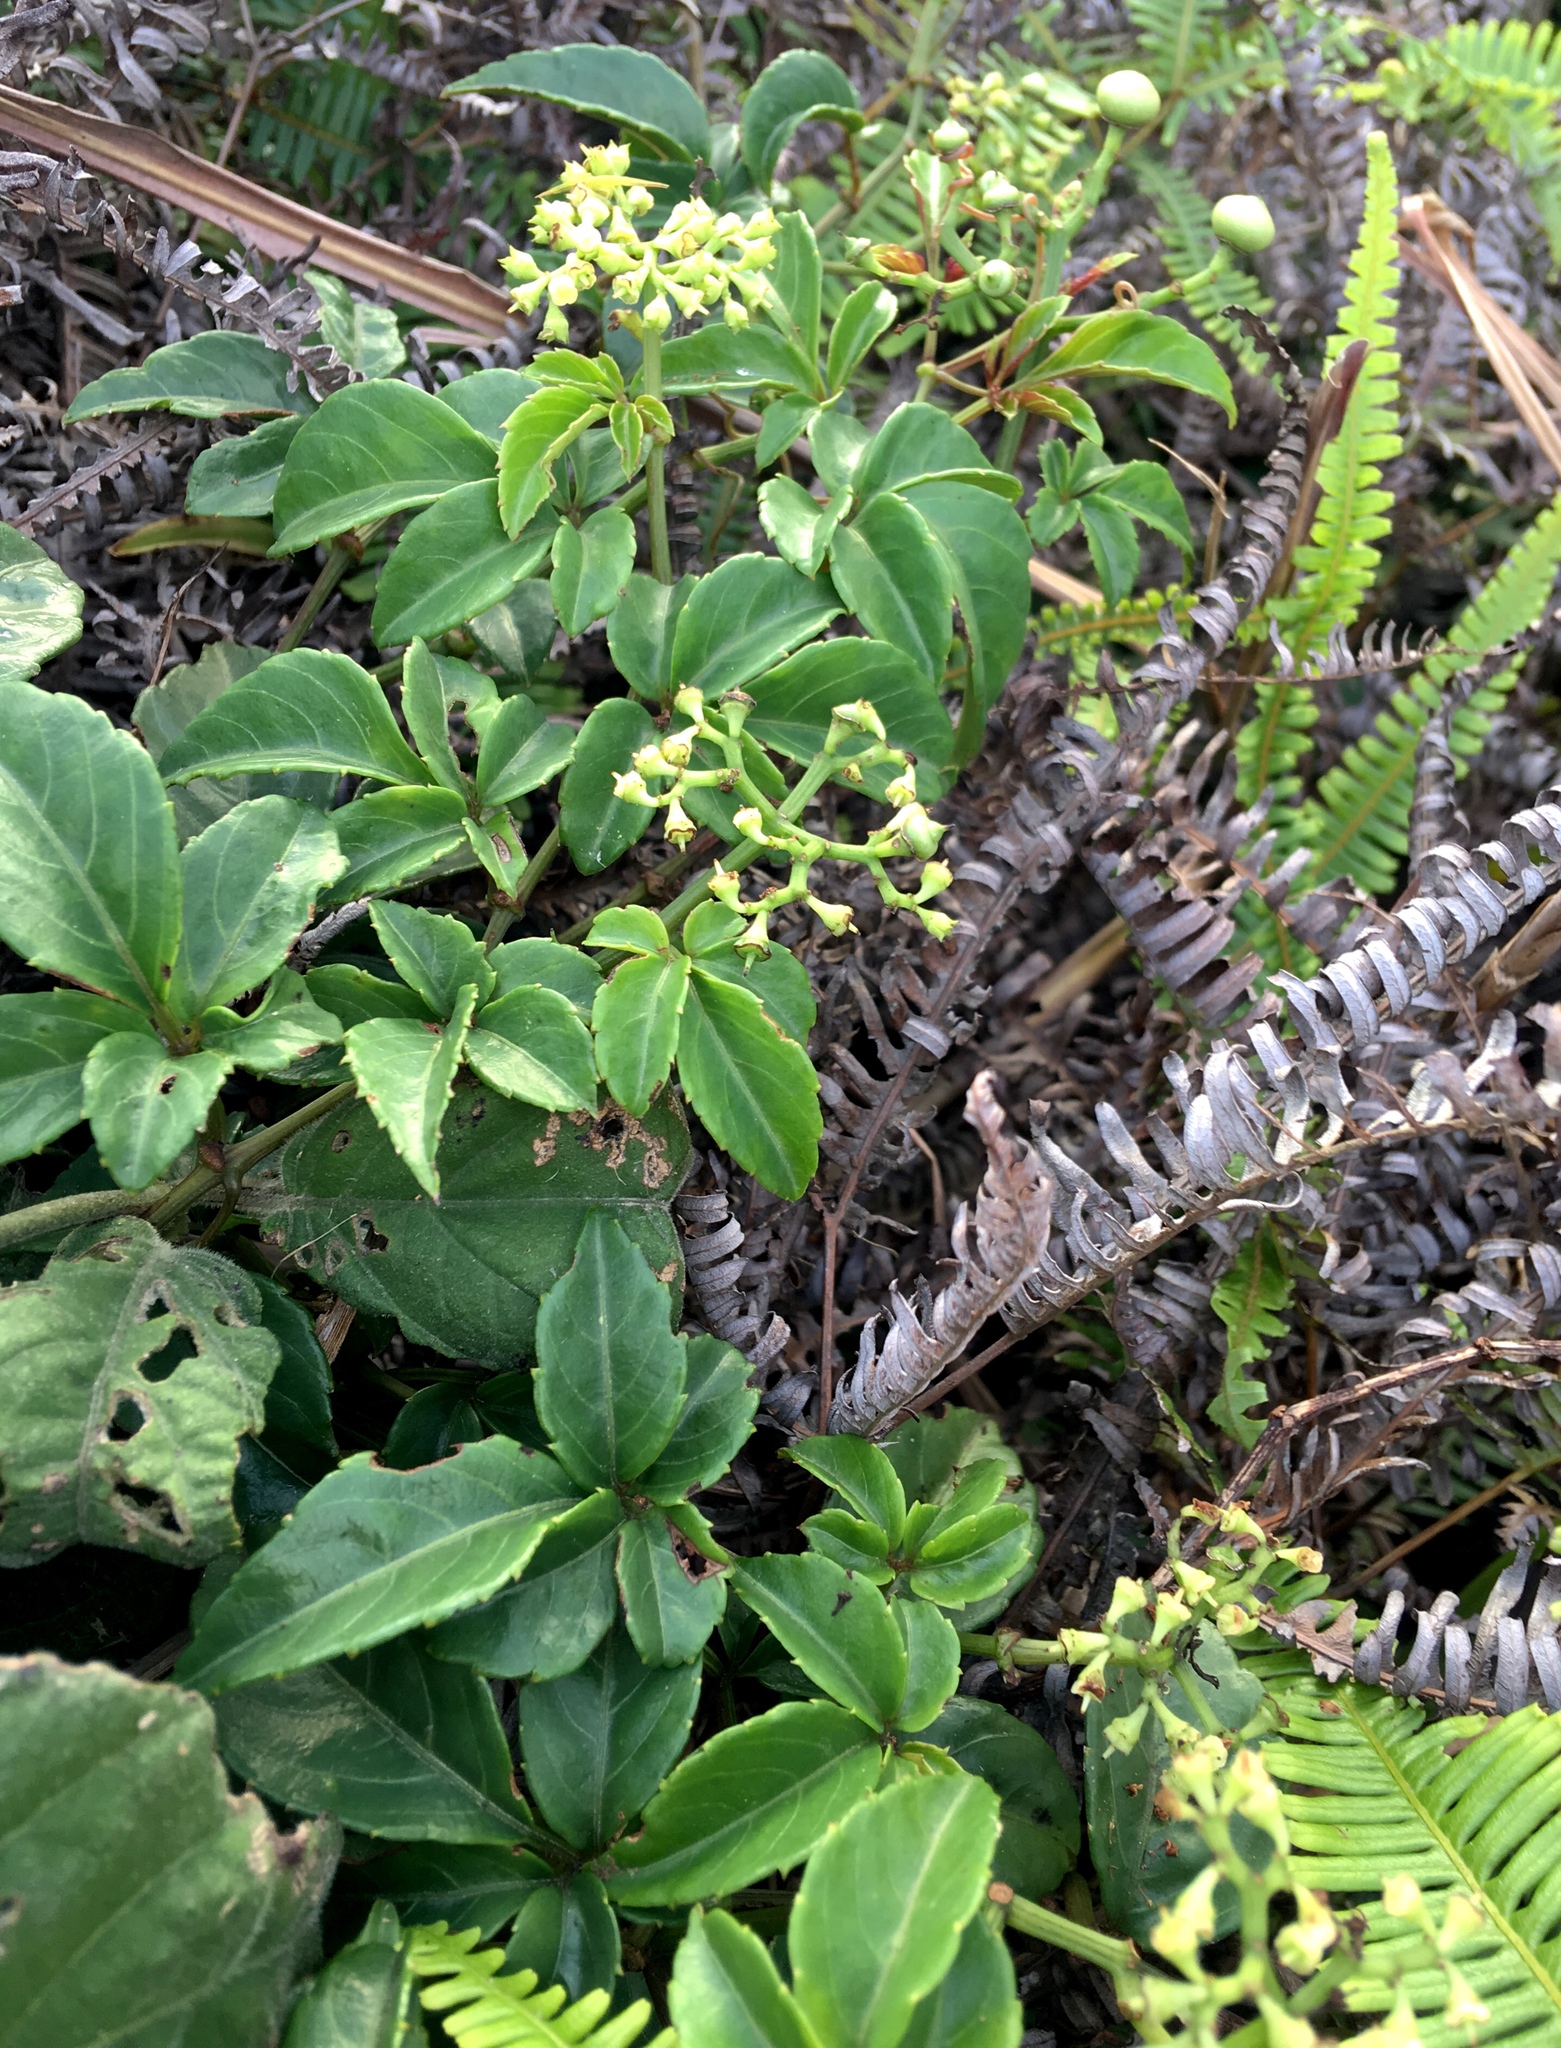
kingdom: Plantae
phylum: Tracheophyta
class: Magnoliopsida
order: Vitales
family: Vitaceae
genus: Causonis
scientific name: Causonis corniculata
